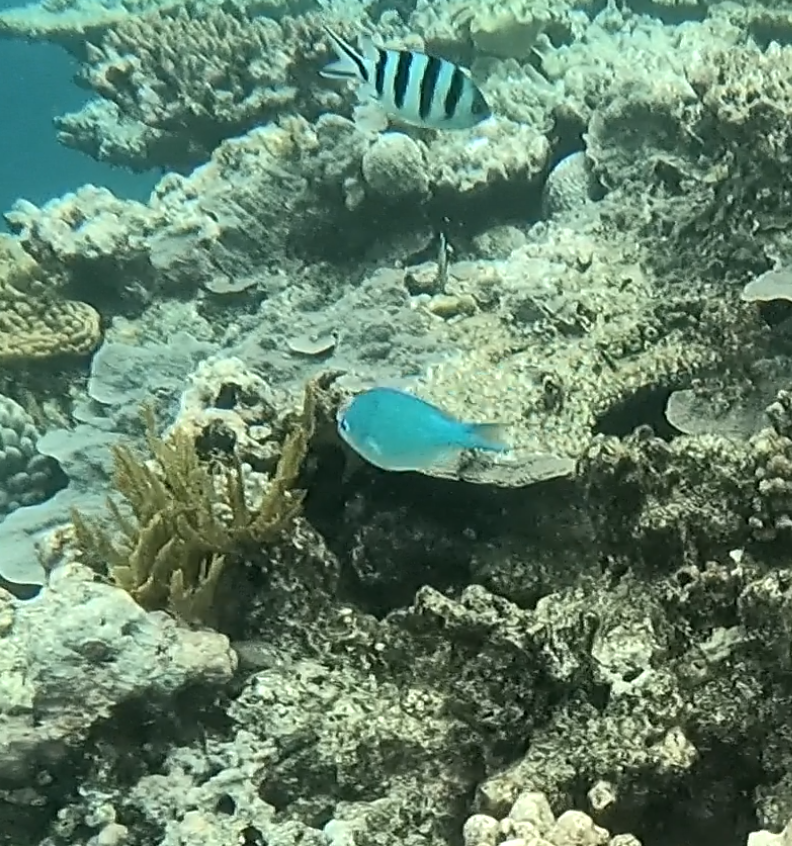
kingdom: Animalia
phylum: Chordata
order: Perciformes
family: Pomacentridae
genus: Chromis
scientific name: Chromis viridis
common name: Blue-green chromis
